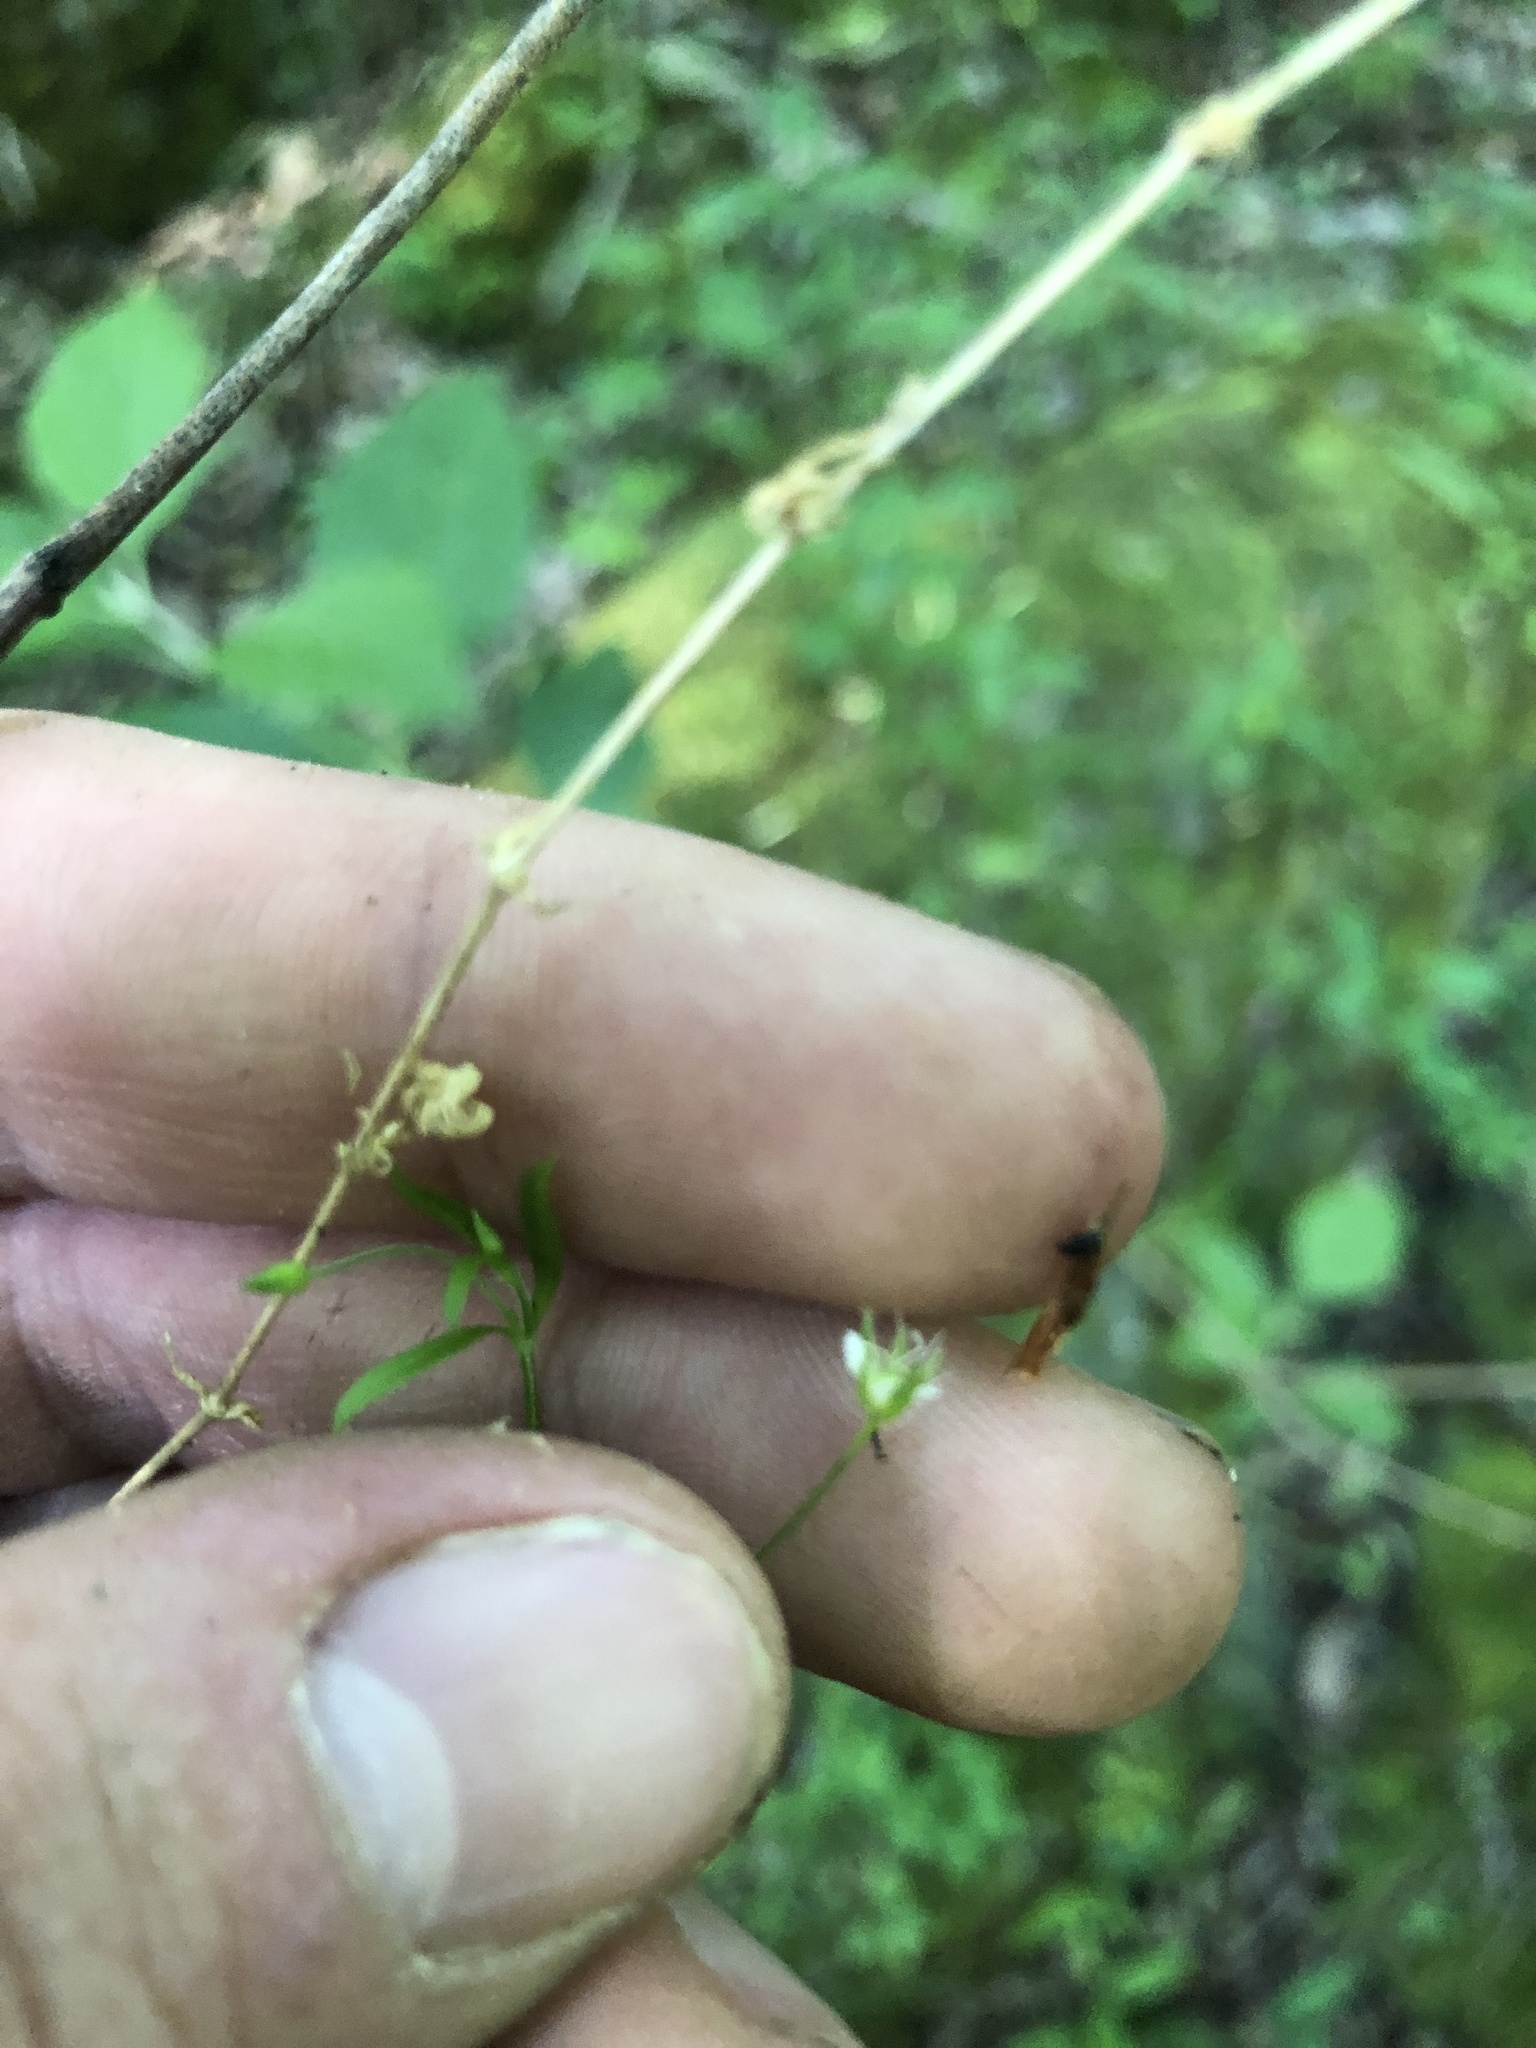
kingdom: Plantae
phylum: Tracheophyta
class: Magnoliopsida
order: Caryophyllales
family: Caryophyllaceae
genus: Arenaria
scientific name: Arenaria lanuginosa
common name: Spread sandwort
